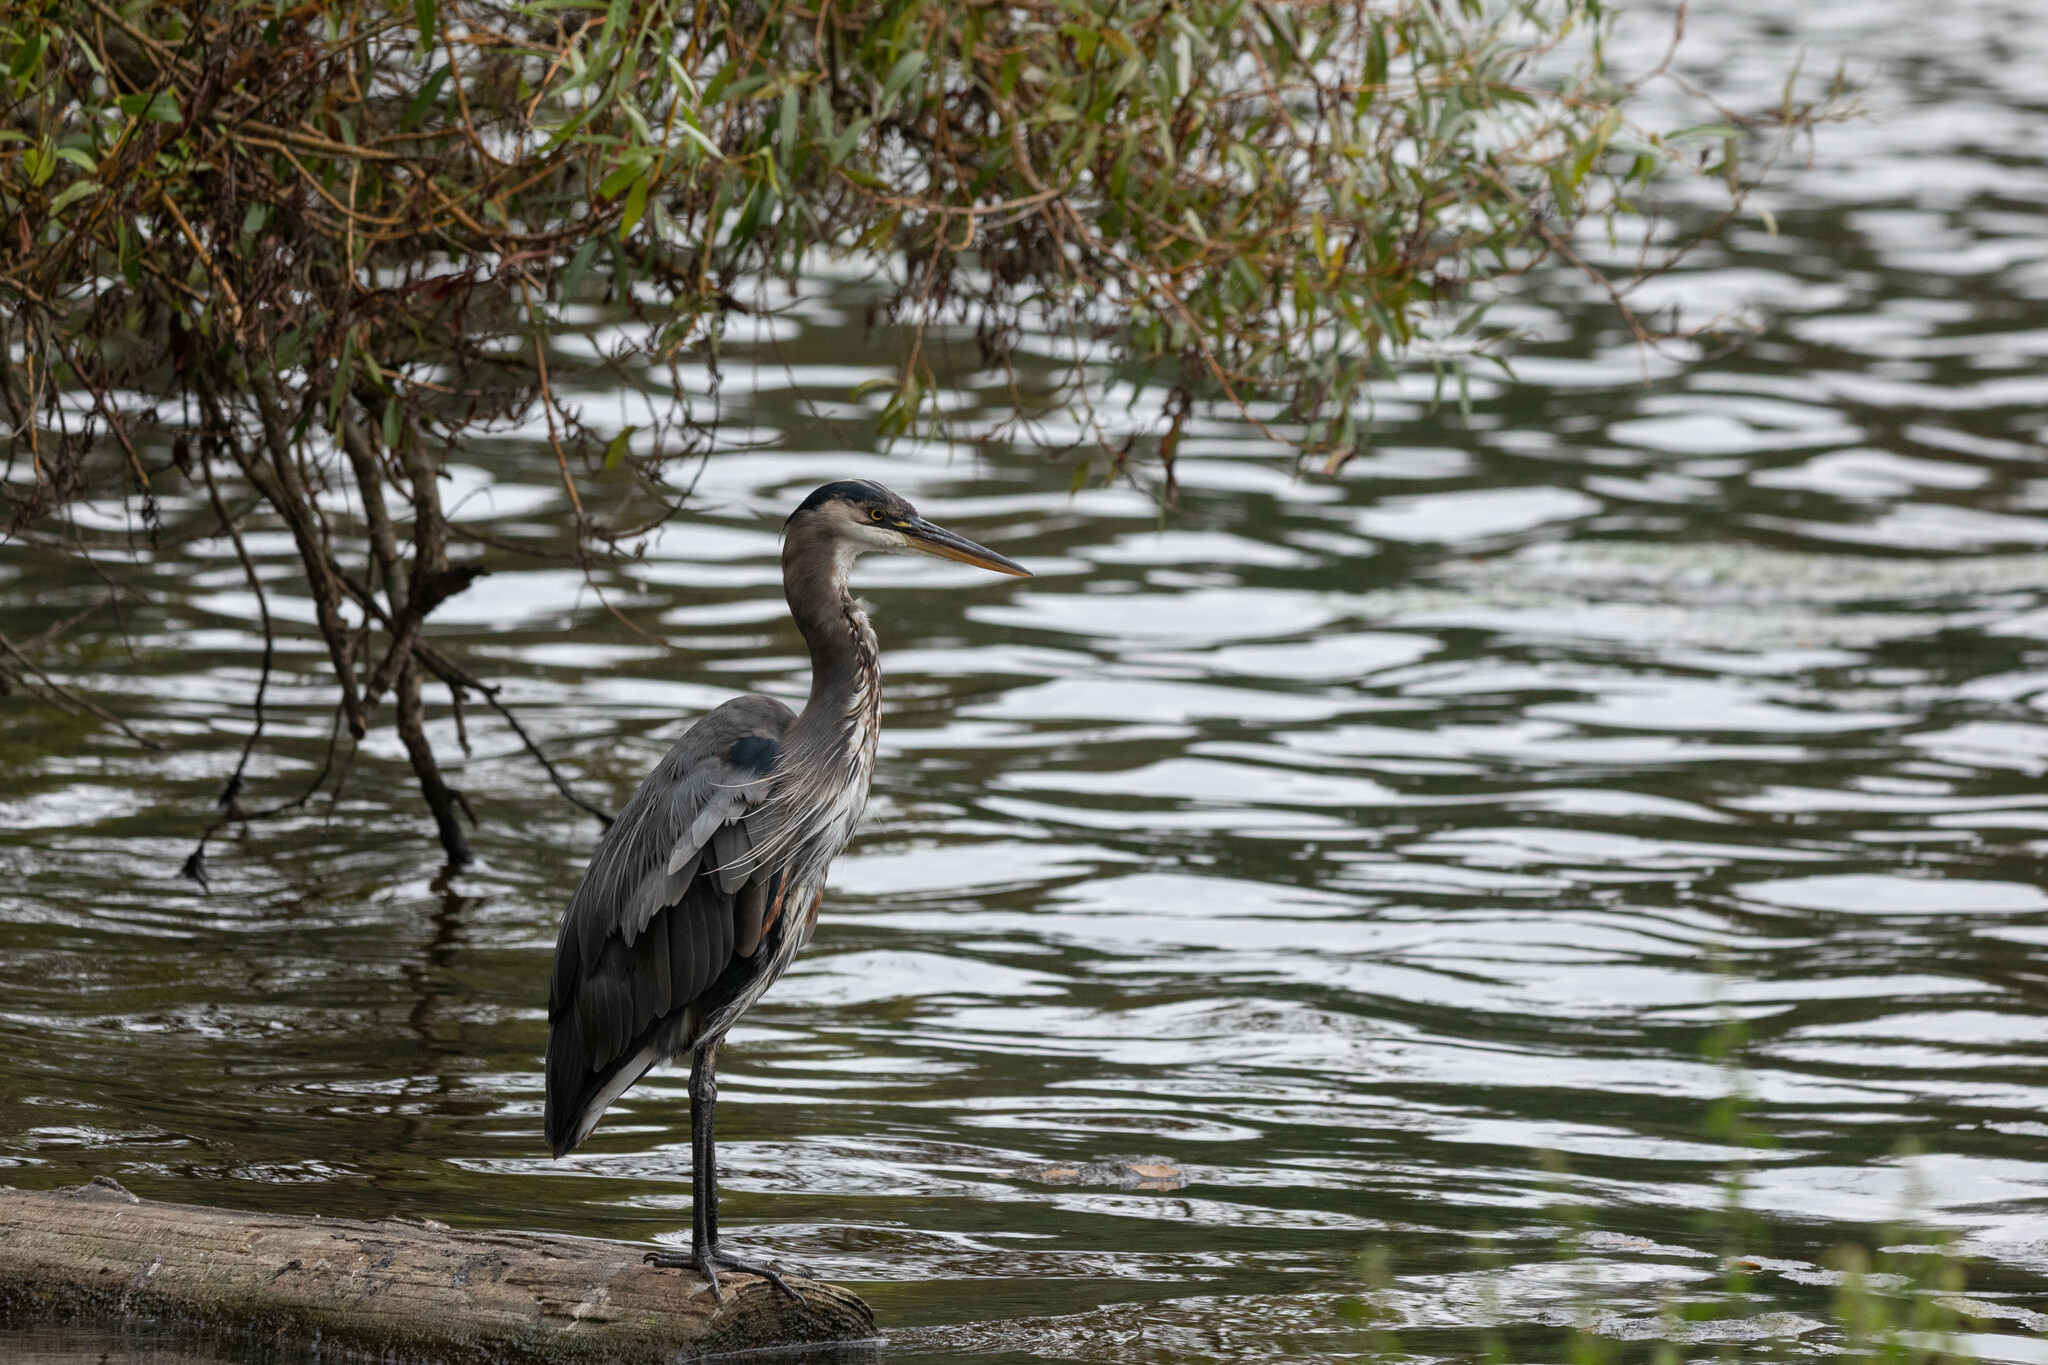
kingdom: Animalia
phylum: Chordata
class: Aves
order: Pelecaniformes
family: Ardeidae
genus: Ardea
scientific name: Ardea herodias
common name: Great blue heron
